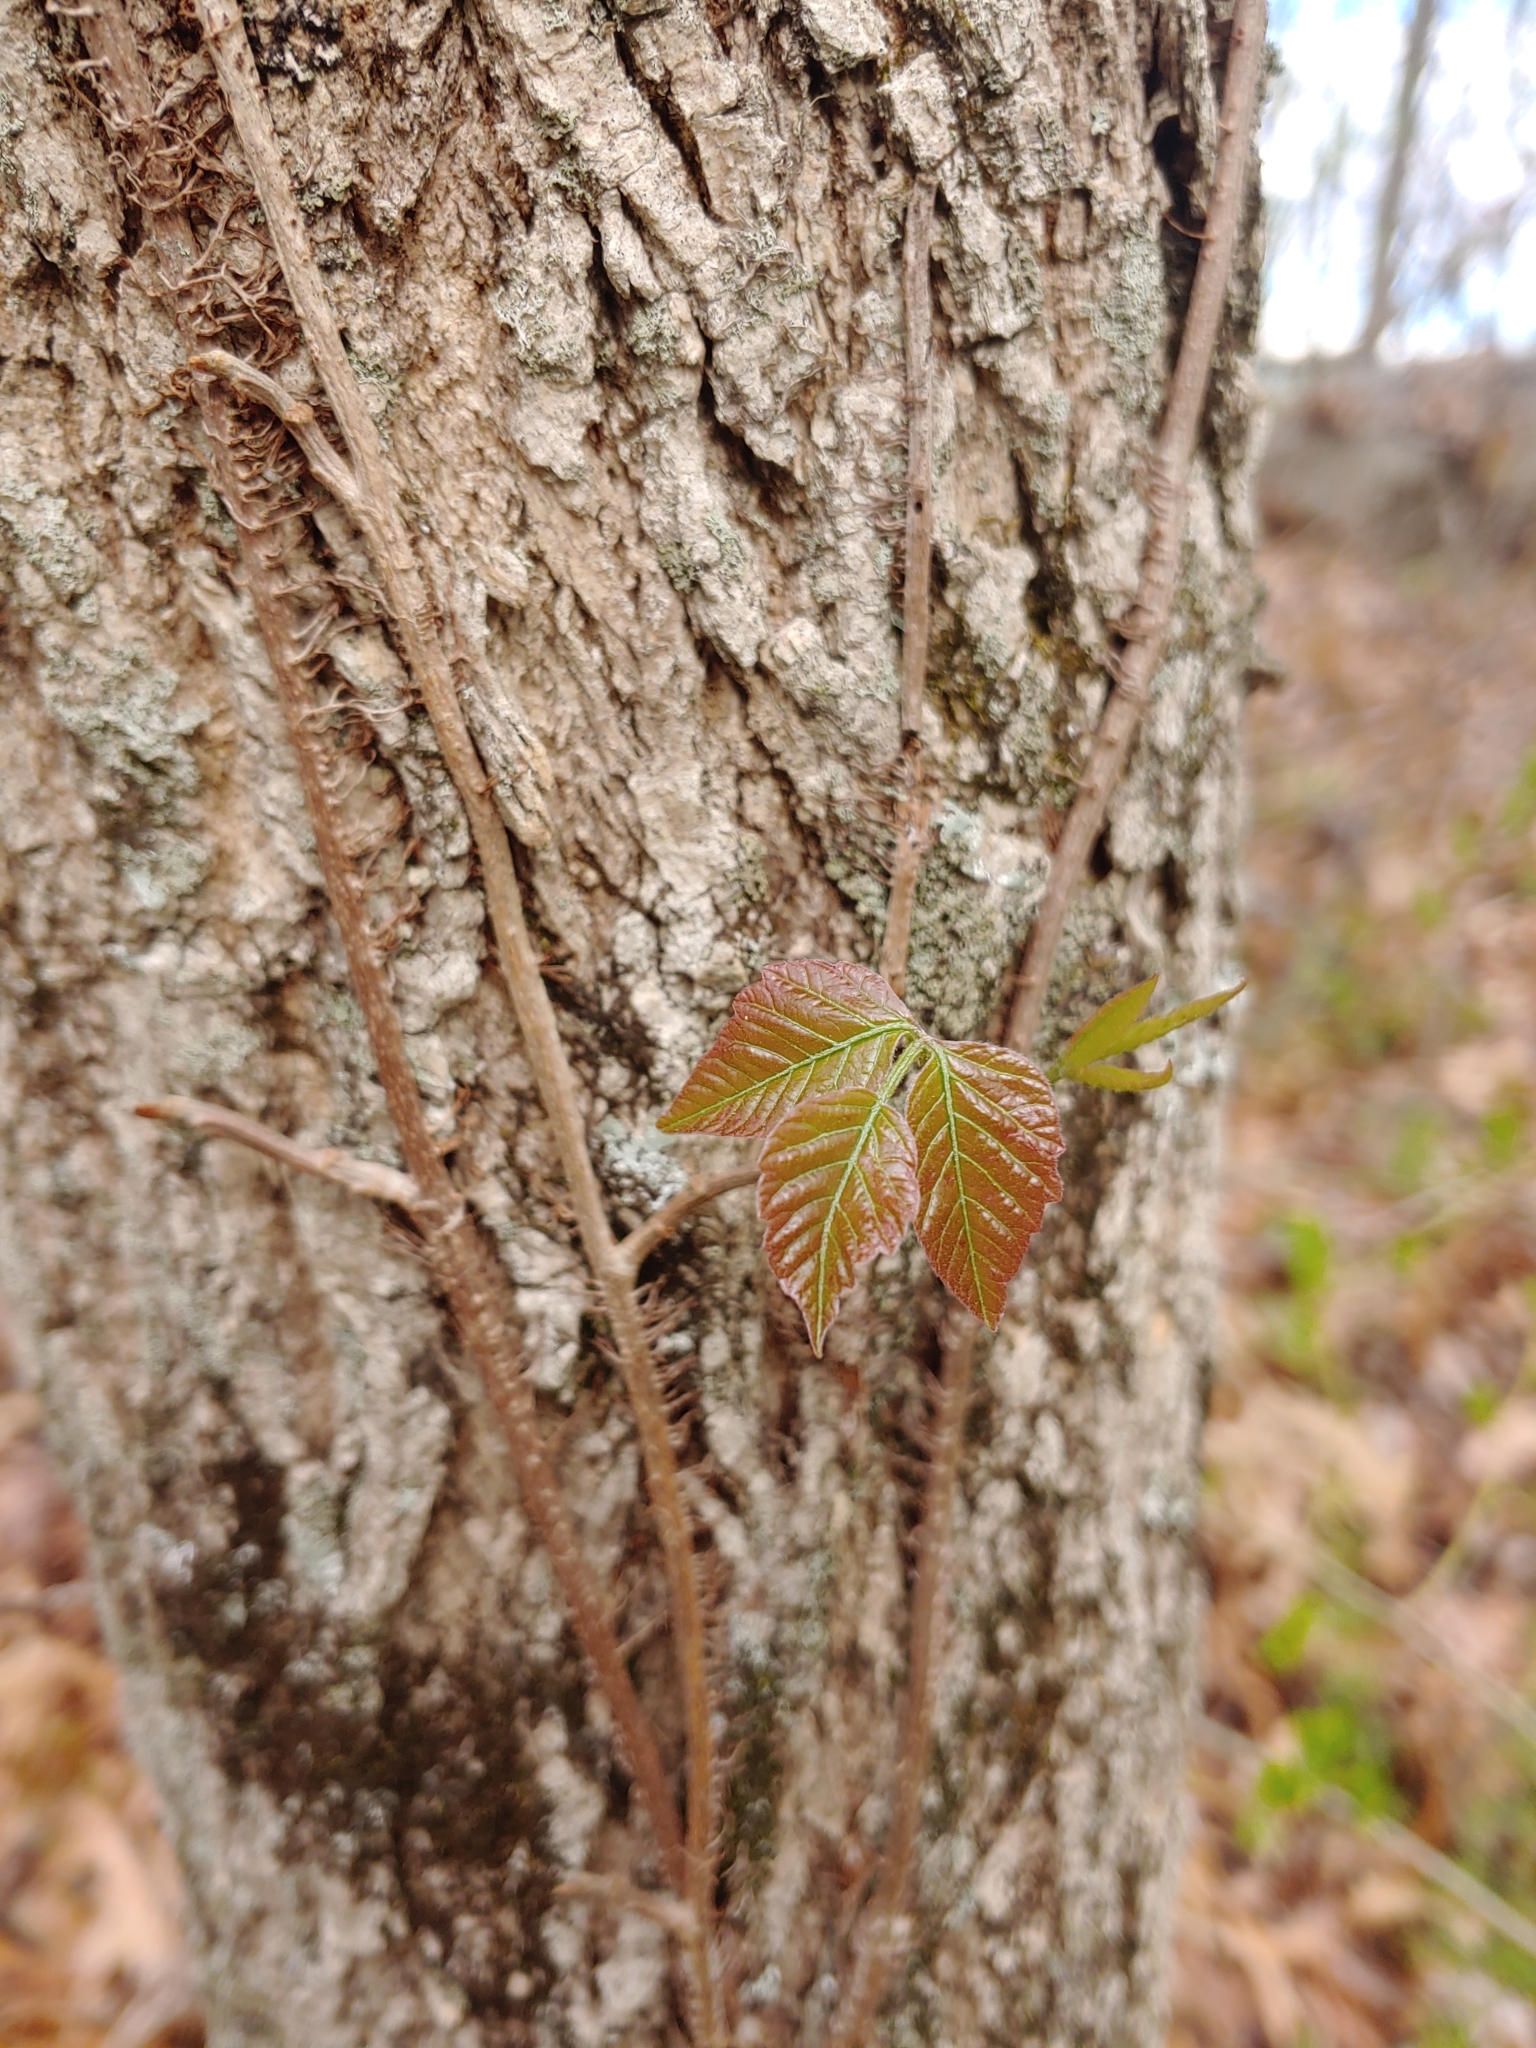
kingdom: Plantae
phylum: Tracheophyta
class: Magnoliopsida
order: Sapindales
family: Anacardiaceae
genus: Toxicodendron
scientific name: Toxicodendron radicans
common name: Poison ivy
